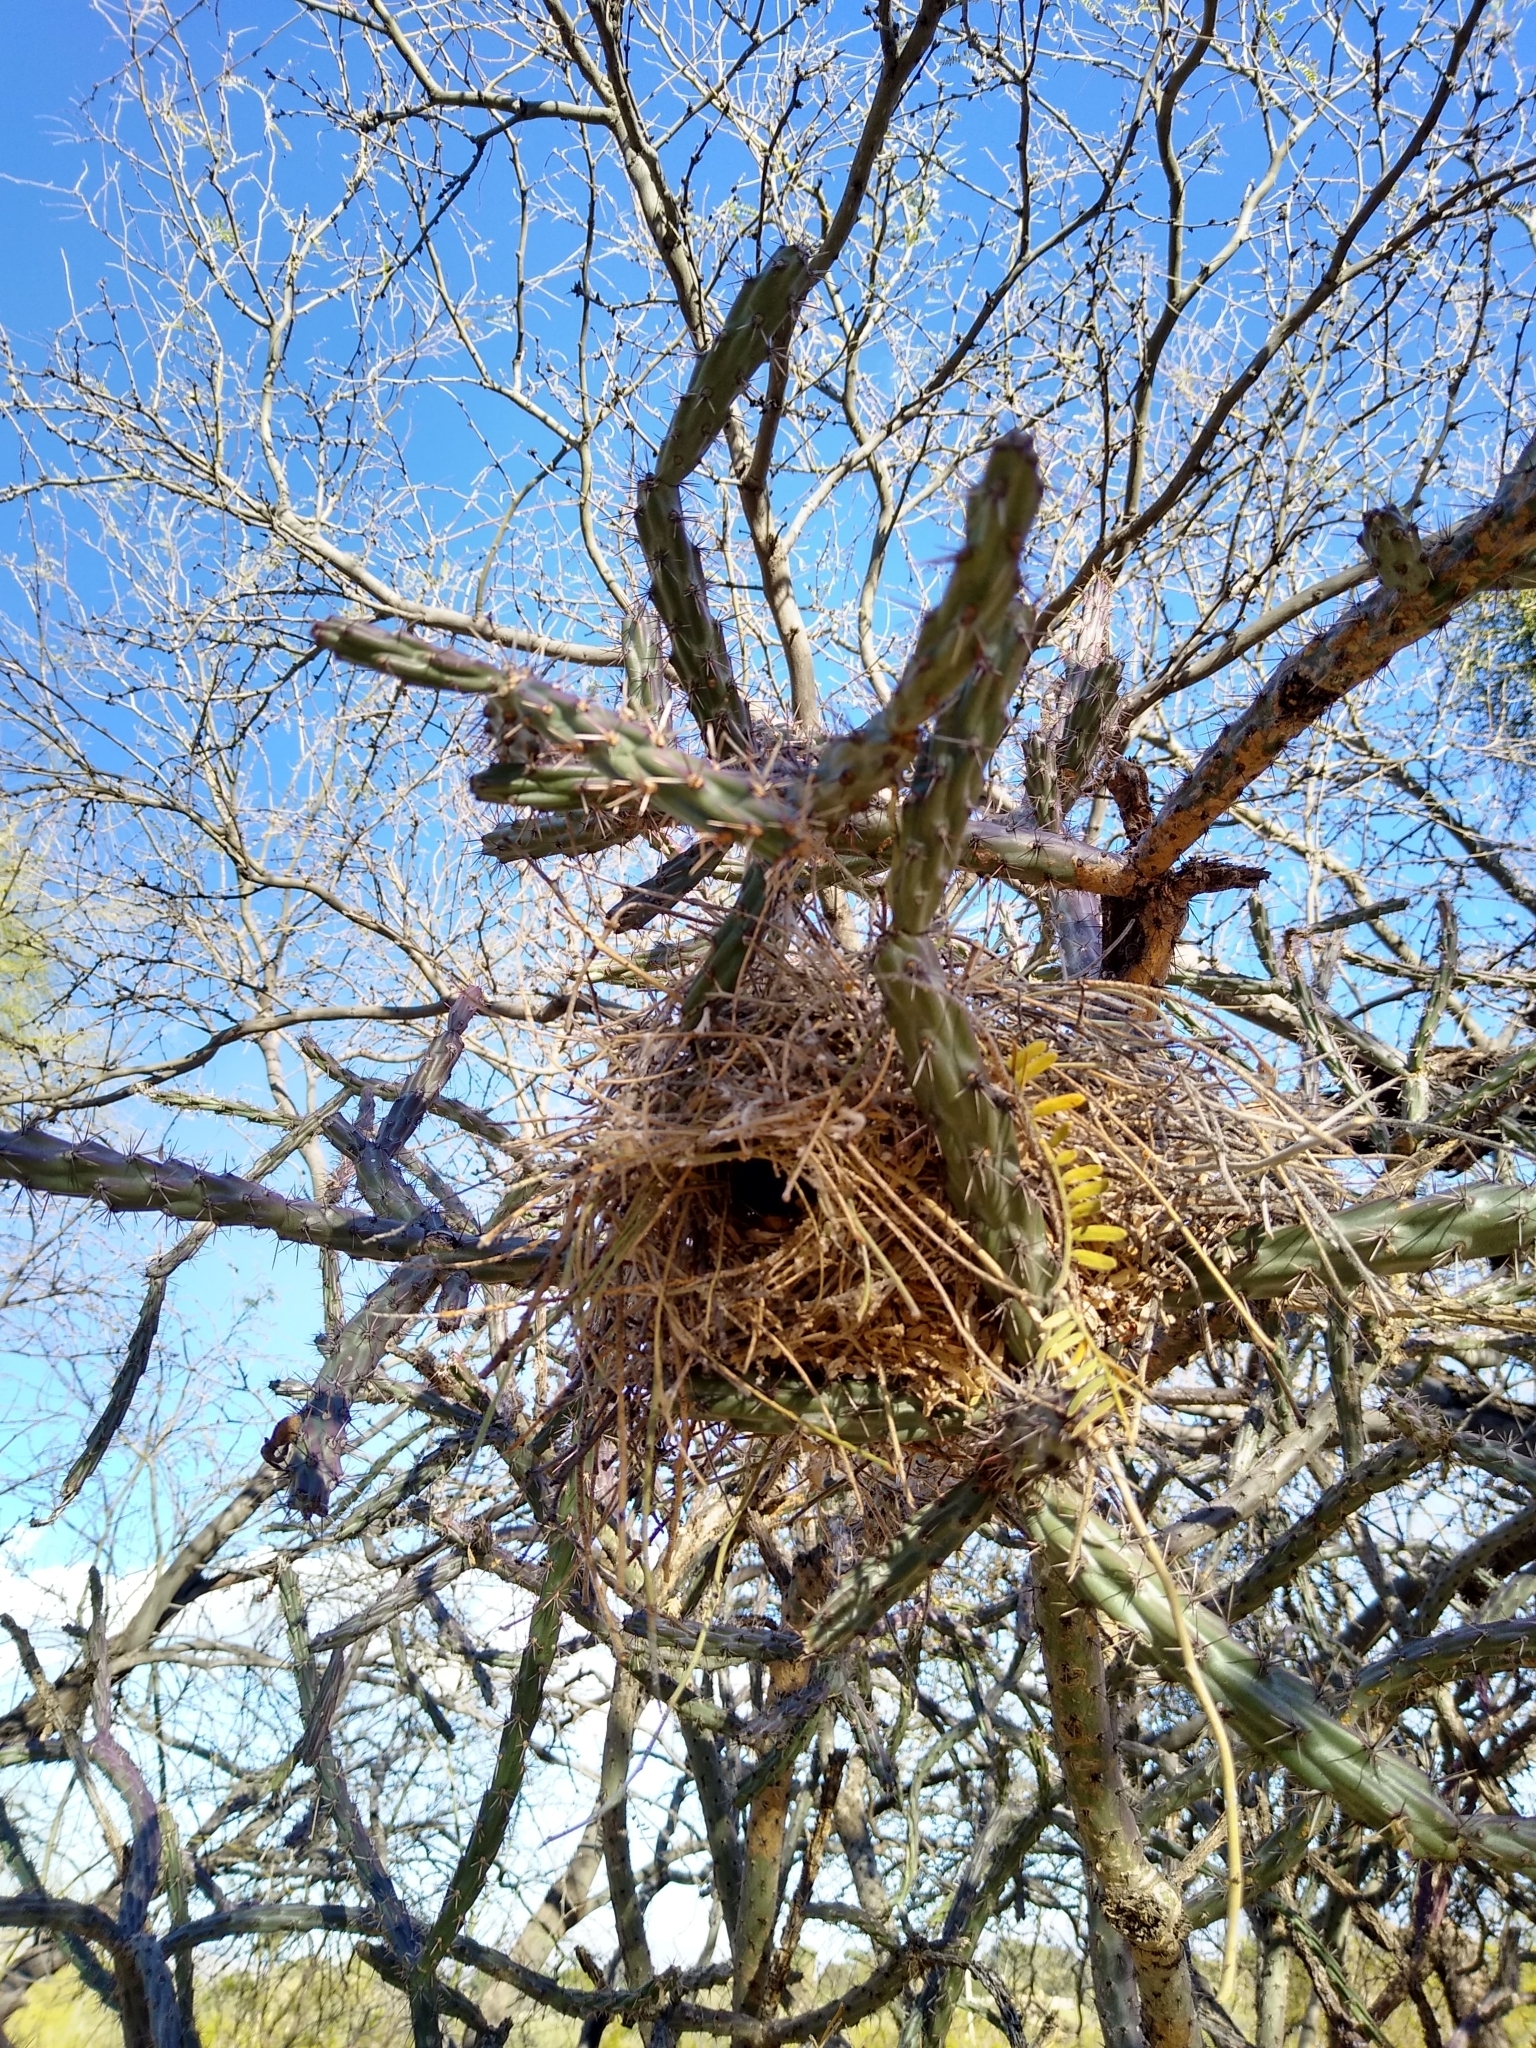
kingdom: Animalia
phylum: Chordata
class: Aves
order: Passeriformes
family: Remizidae
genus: Auriparus
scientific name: Auriparus flaviceps
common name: Verdin
